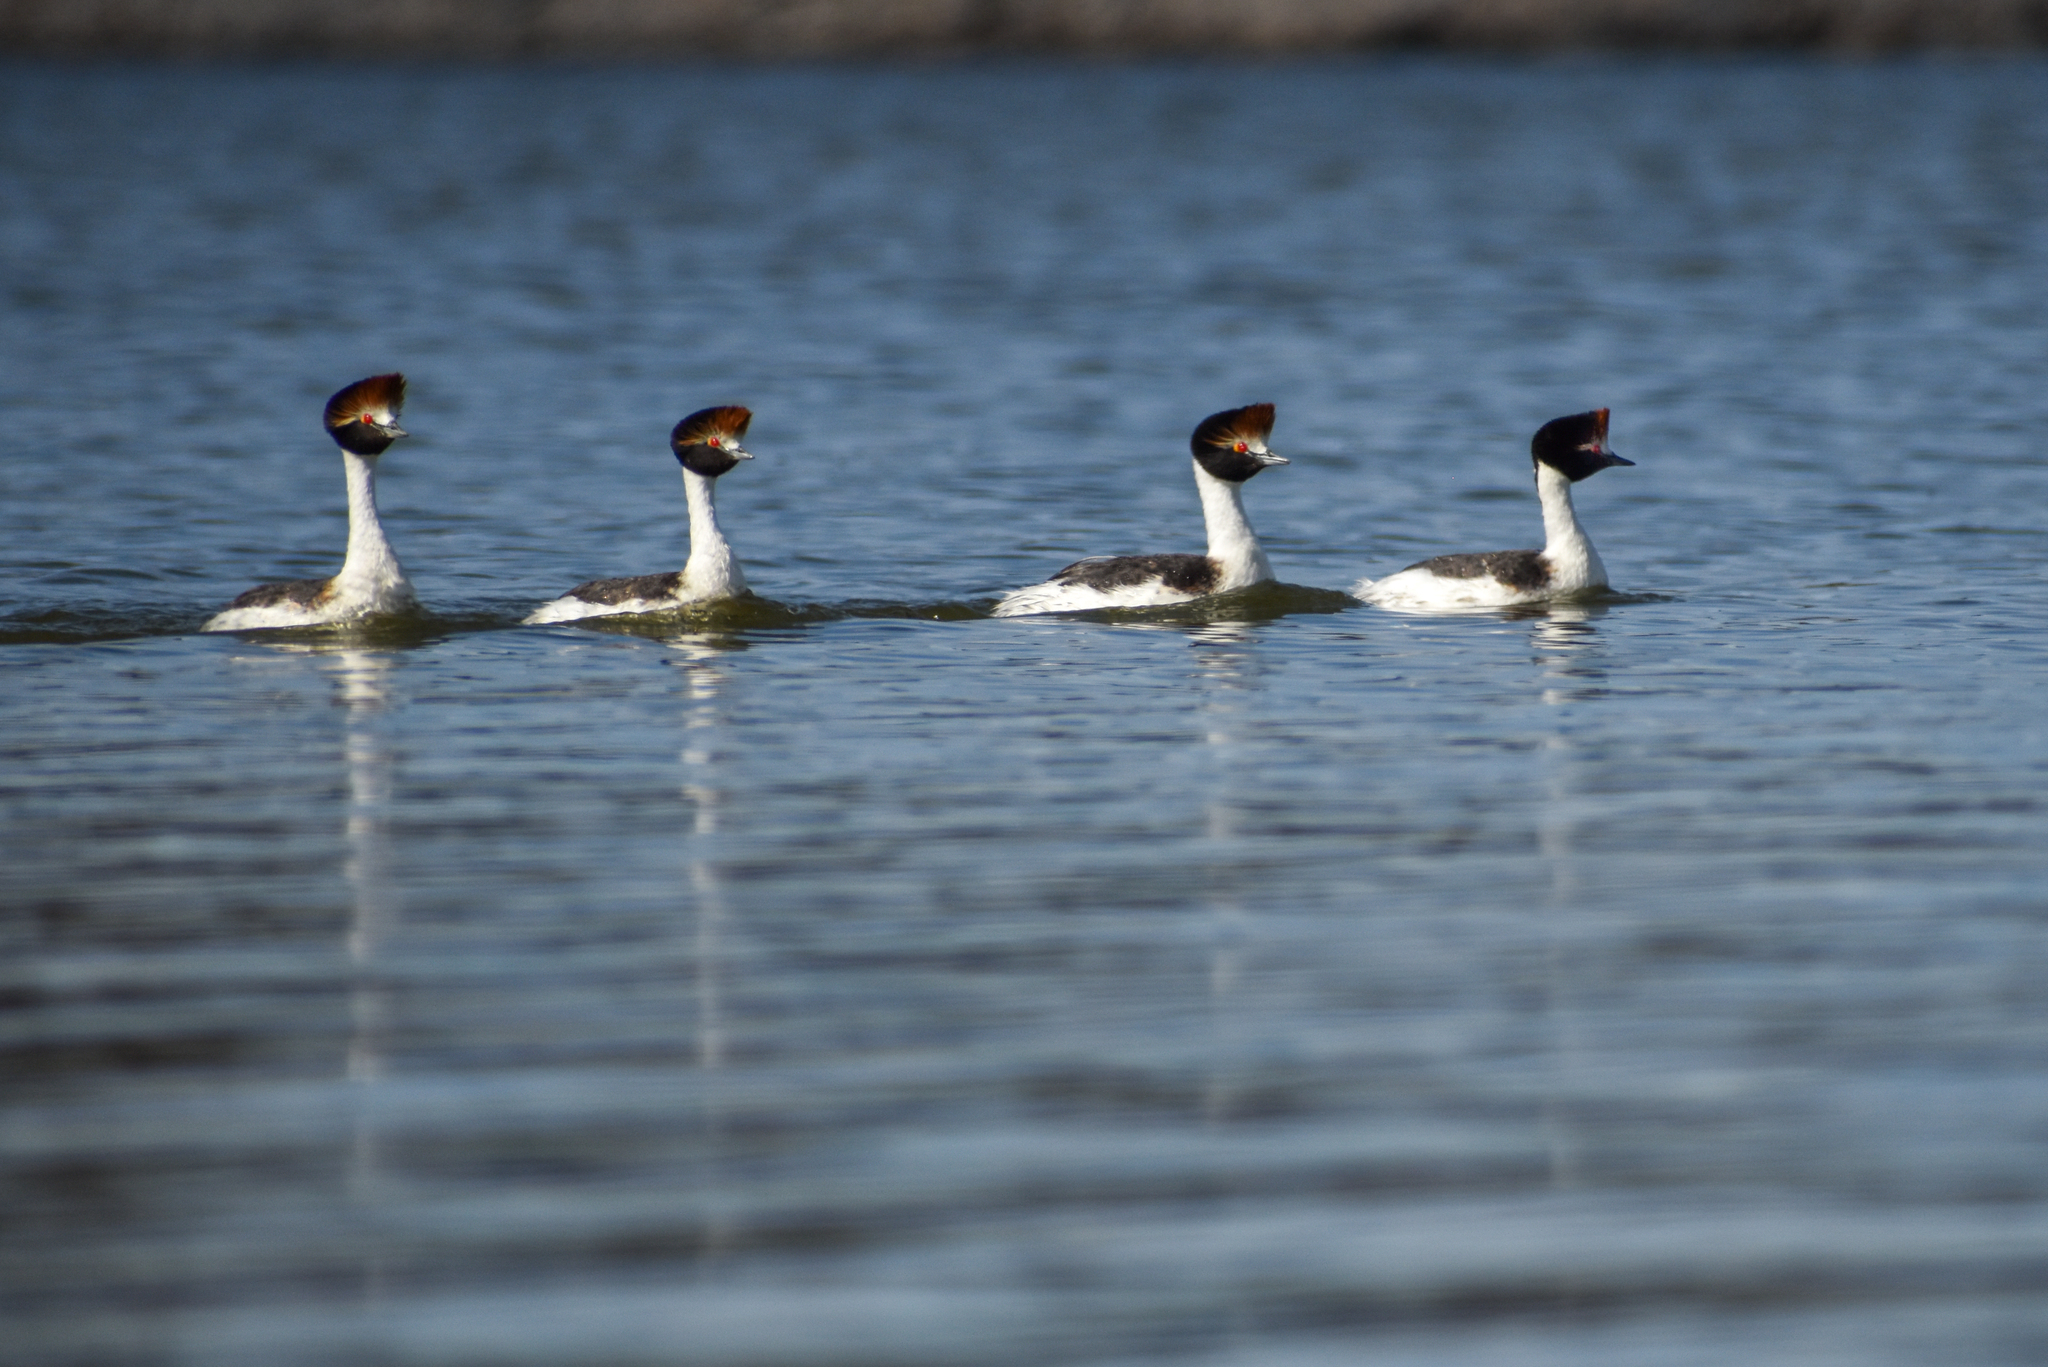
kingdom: Animalia
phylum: Chordata
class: Aves
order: Podicipediformes
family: Podicipedidae
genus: Podiceps
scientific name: Podiceps gallardoi
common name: Hooded grebe
